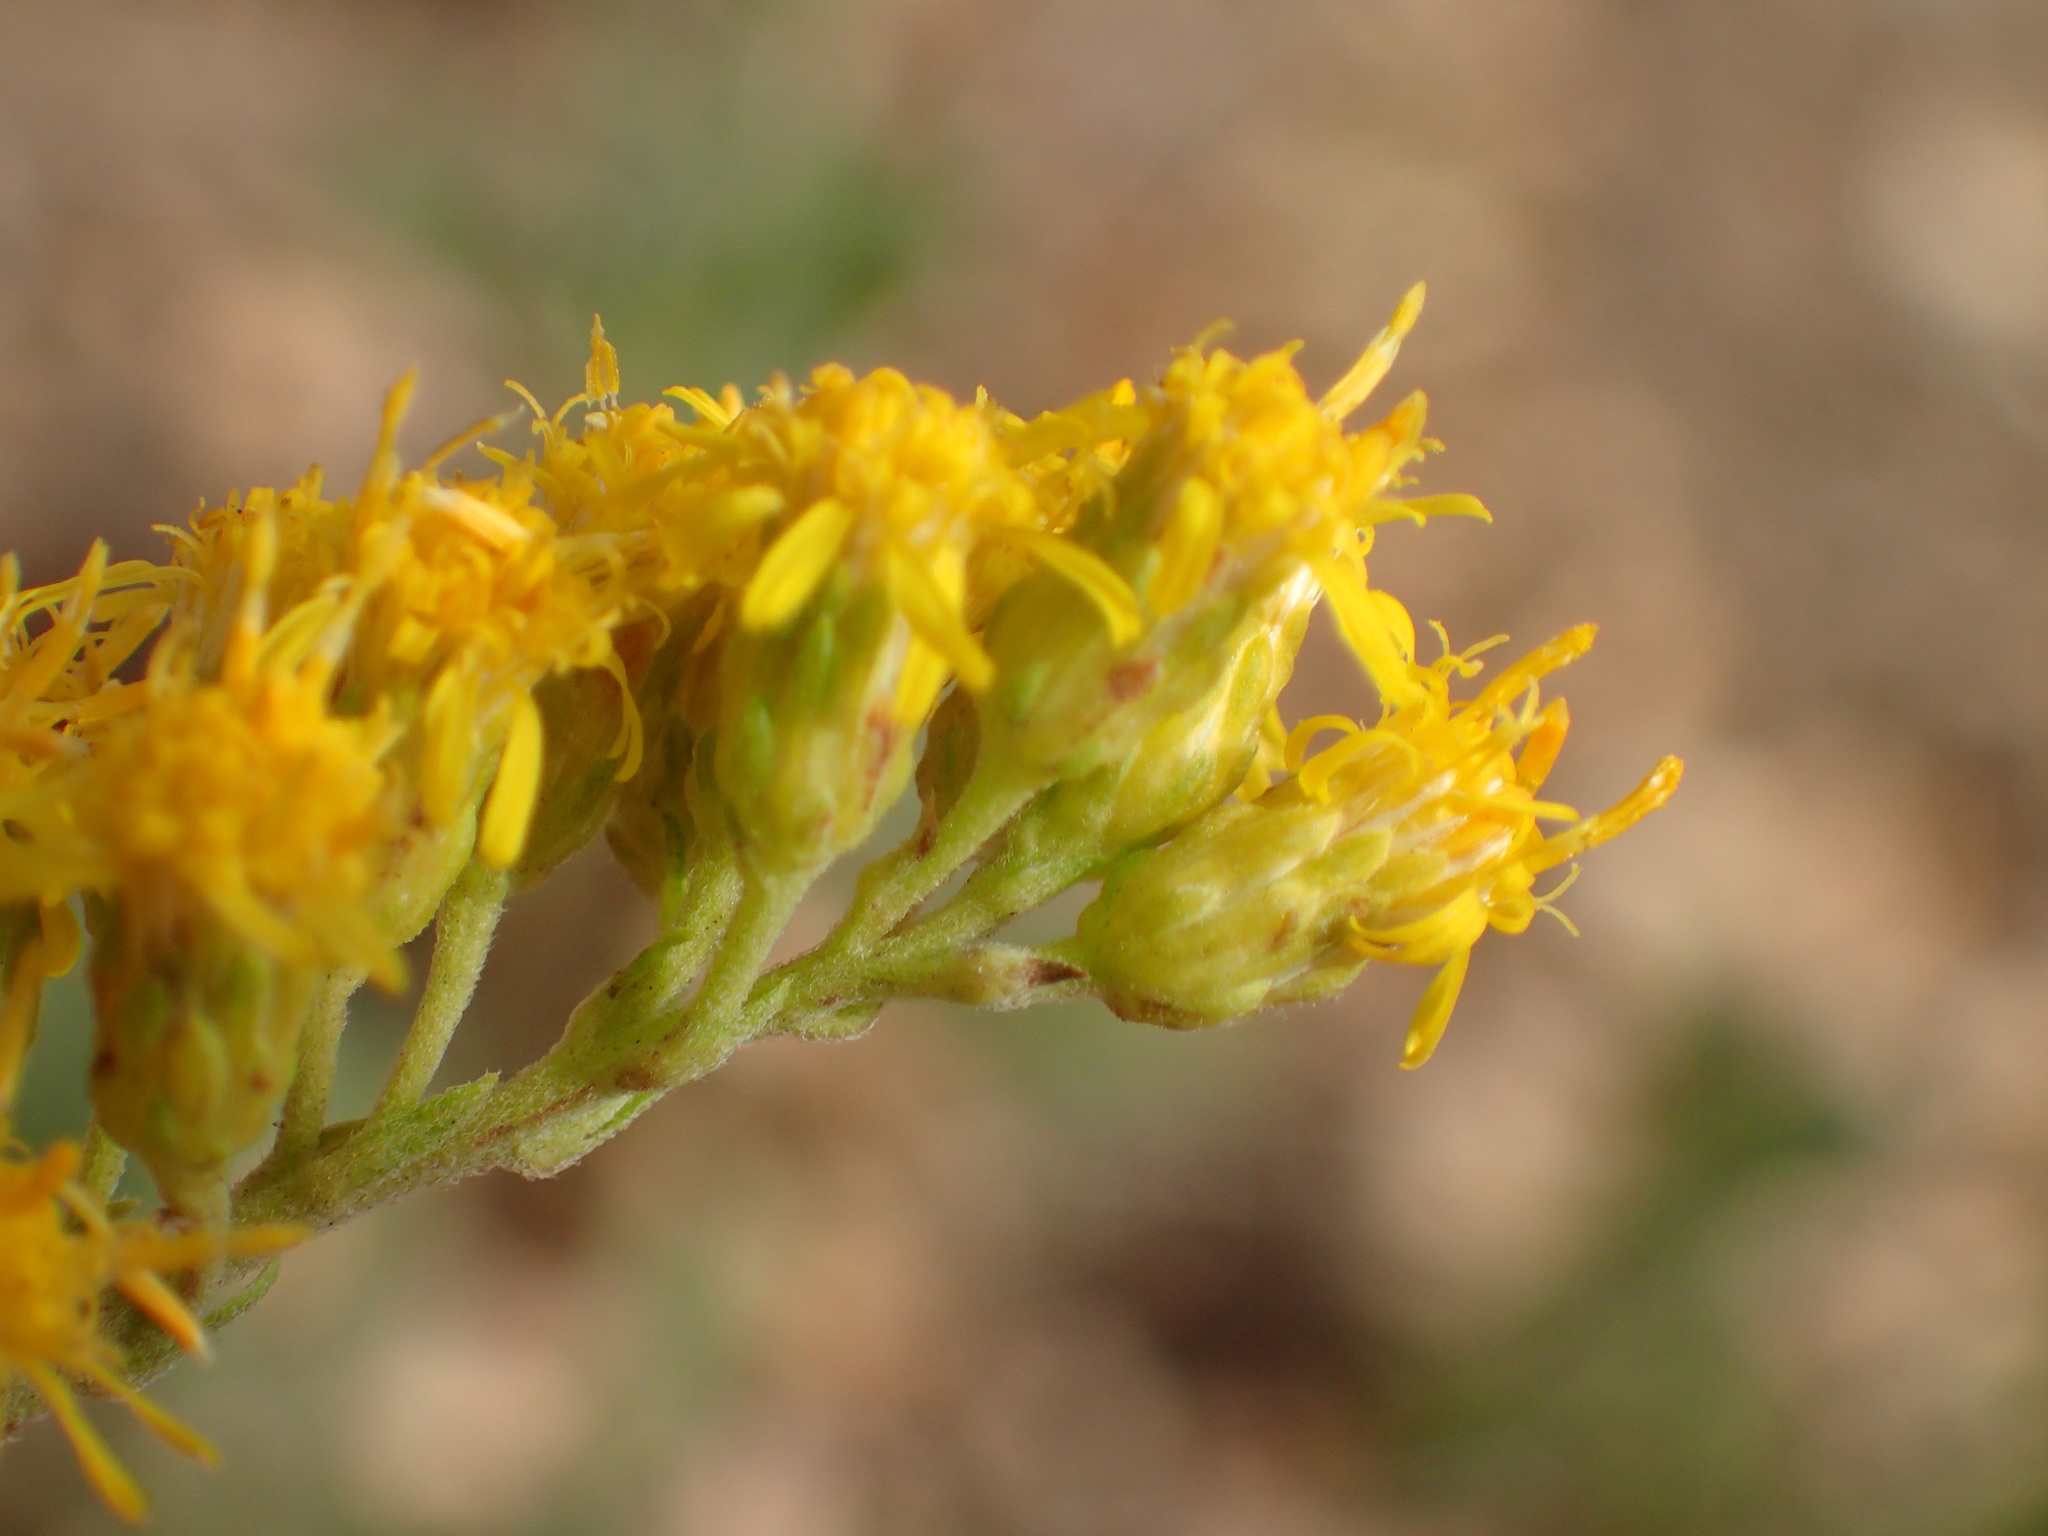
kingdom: Plantae
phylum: Tracheophyta
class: Magnoliopsida
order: Asterales
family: Asteraceae
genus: Solidago
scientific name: Solidago velutina
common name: Three-nerve goldenrod
